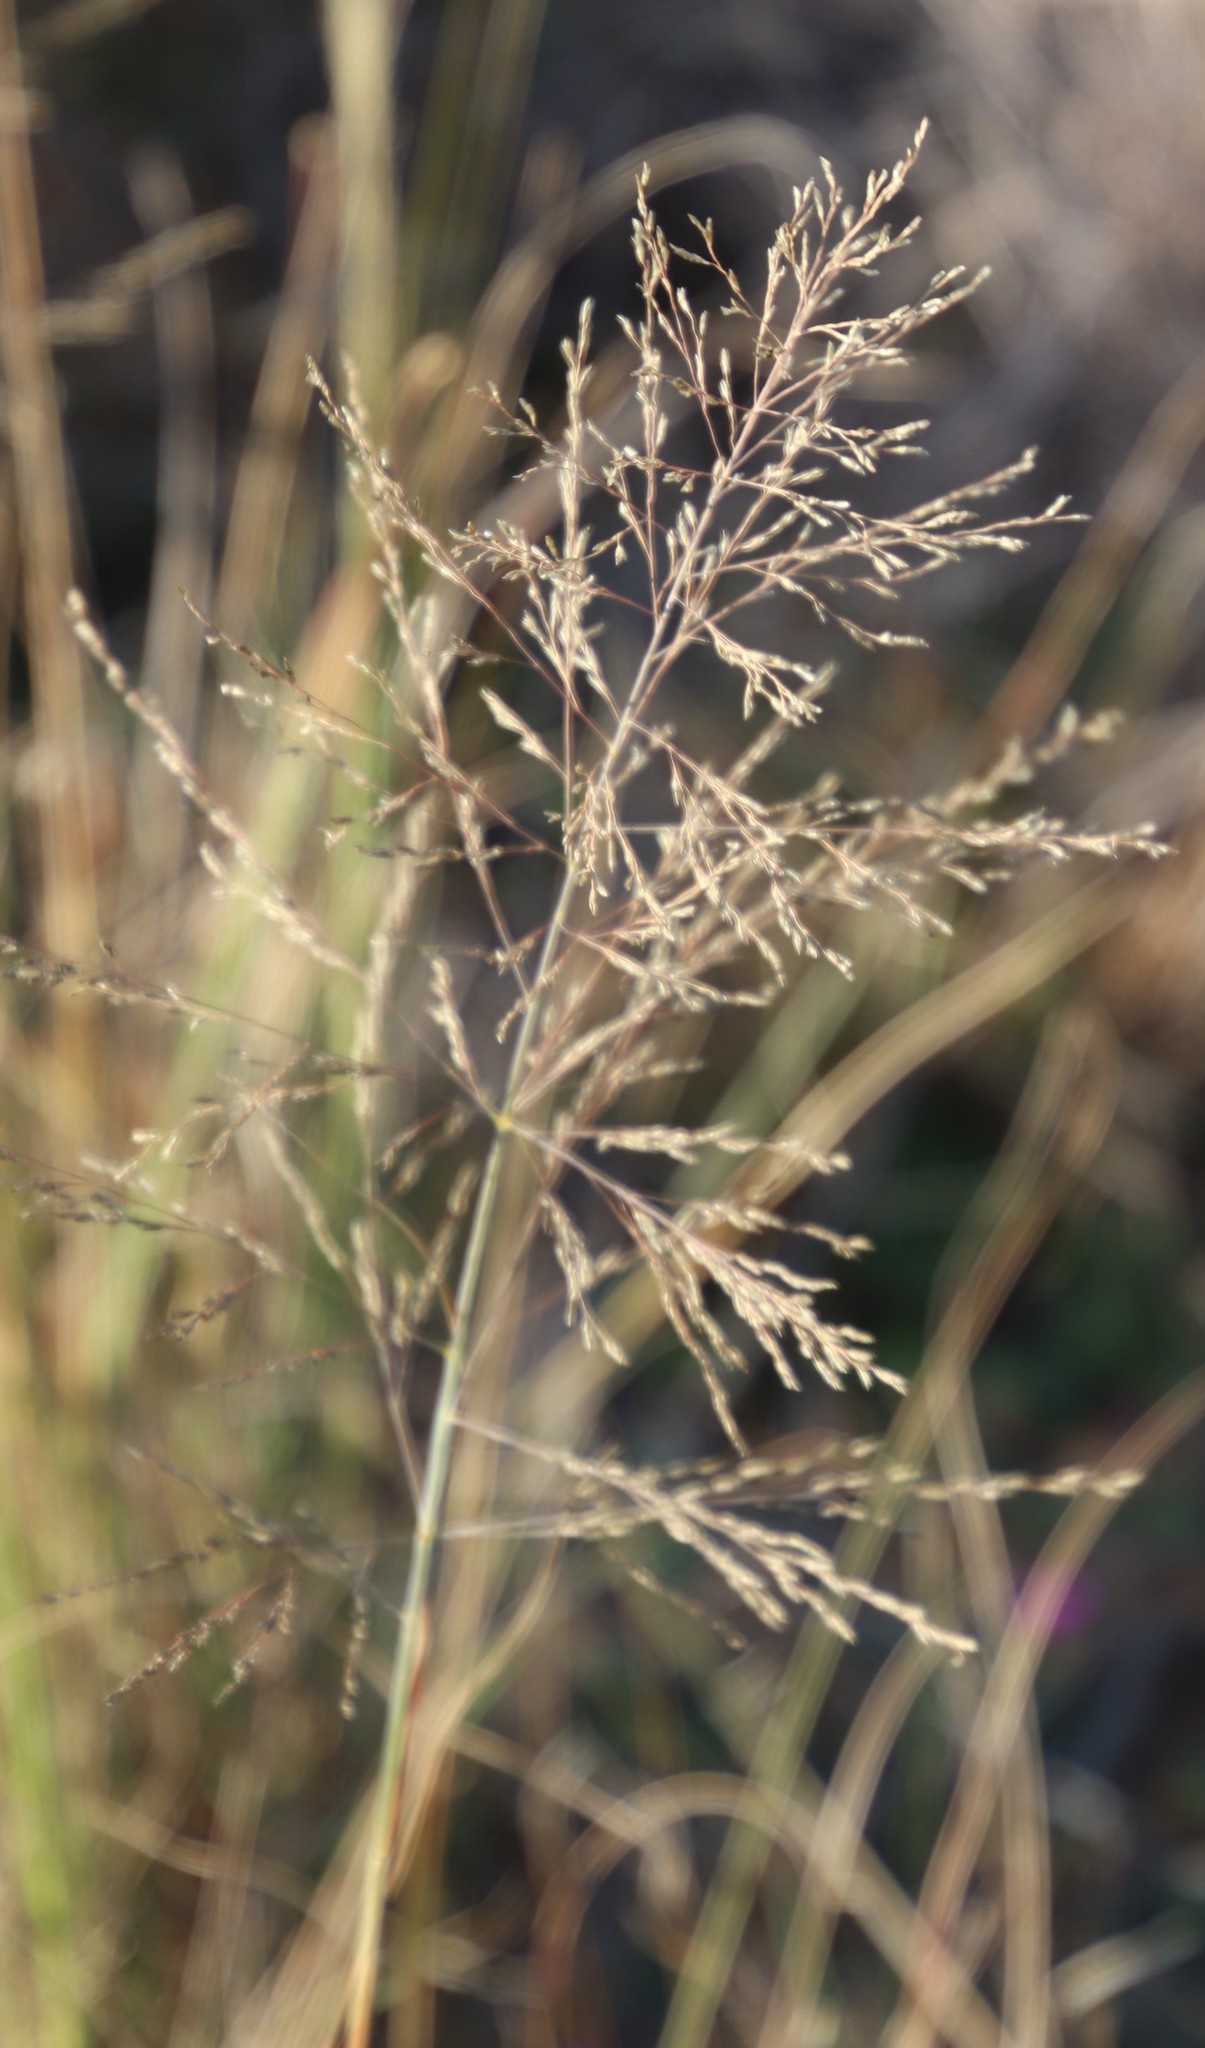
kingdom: Plantae
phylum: Tracheophyta
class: Liliopsida
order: Poales
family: Poaceae
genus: Eragrostis
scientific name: Eragrostis curvula
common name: African love-grass
